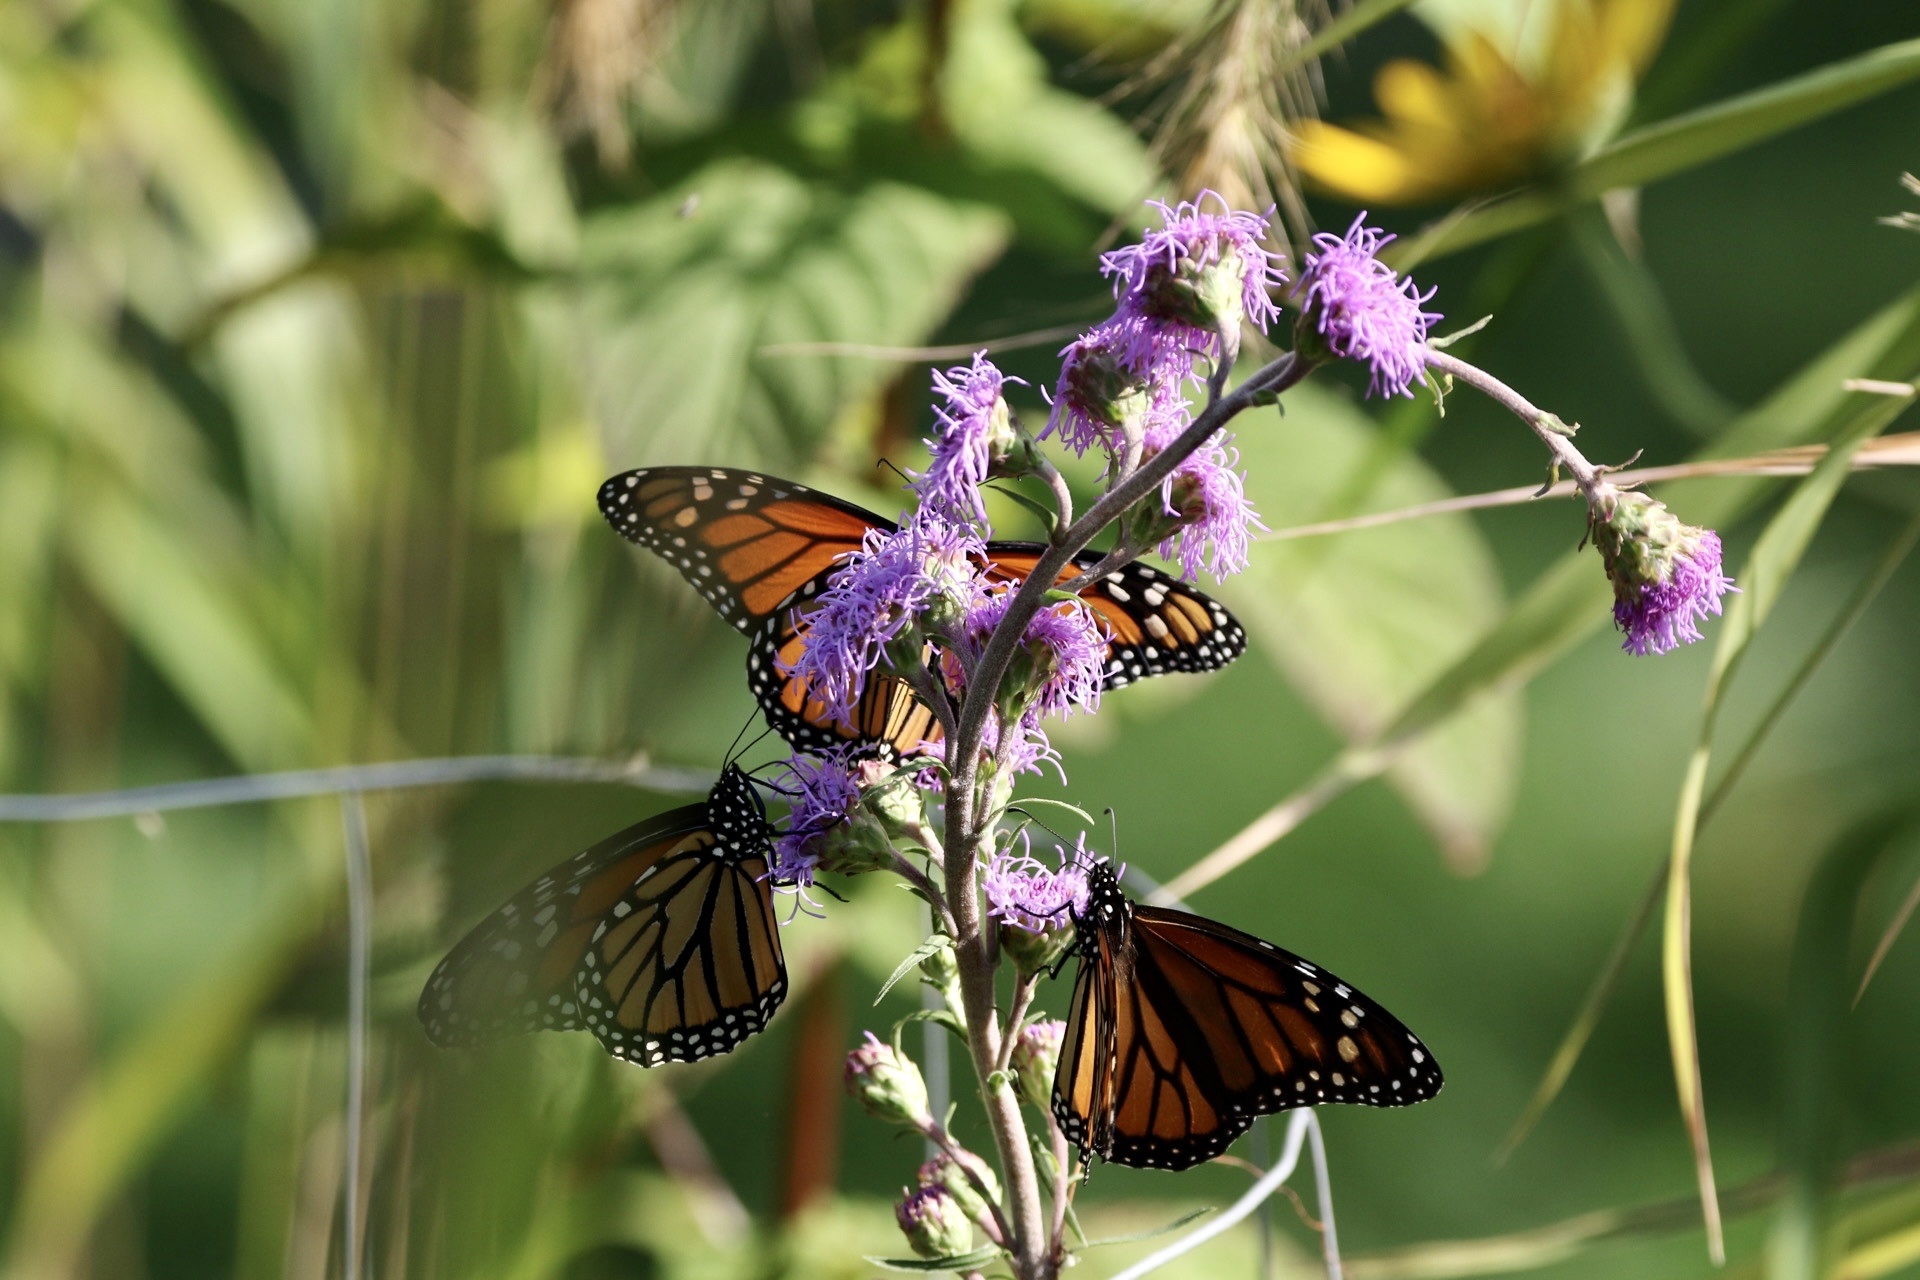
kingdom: Animalia
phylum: Arthropoda
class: Insecta
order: Lepidoptera
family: Nymphalidae
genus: Danaus
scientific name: Danaus plexippus
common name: Monarch
